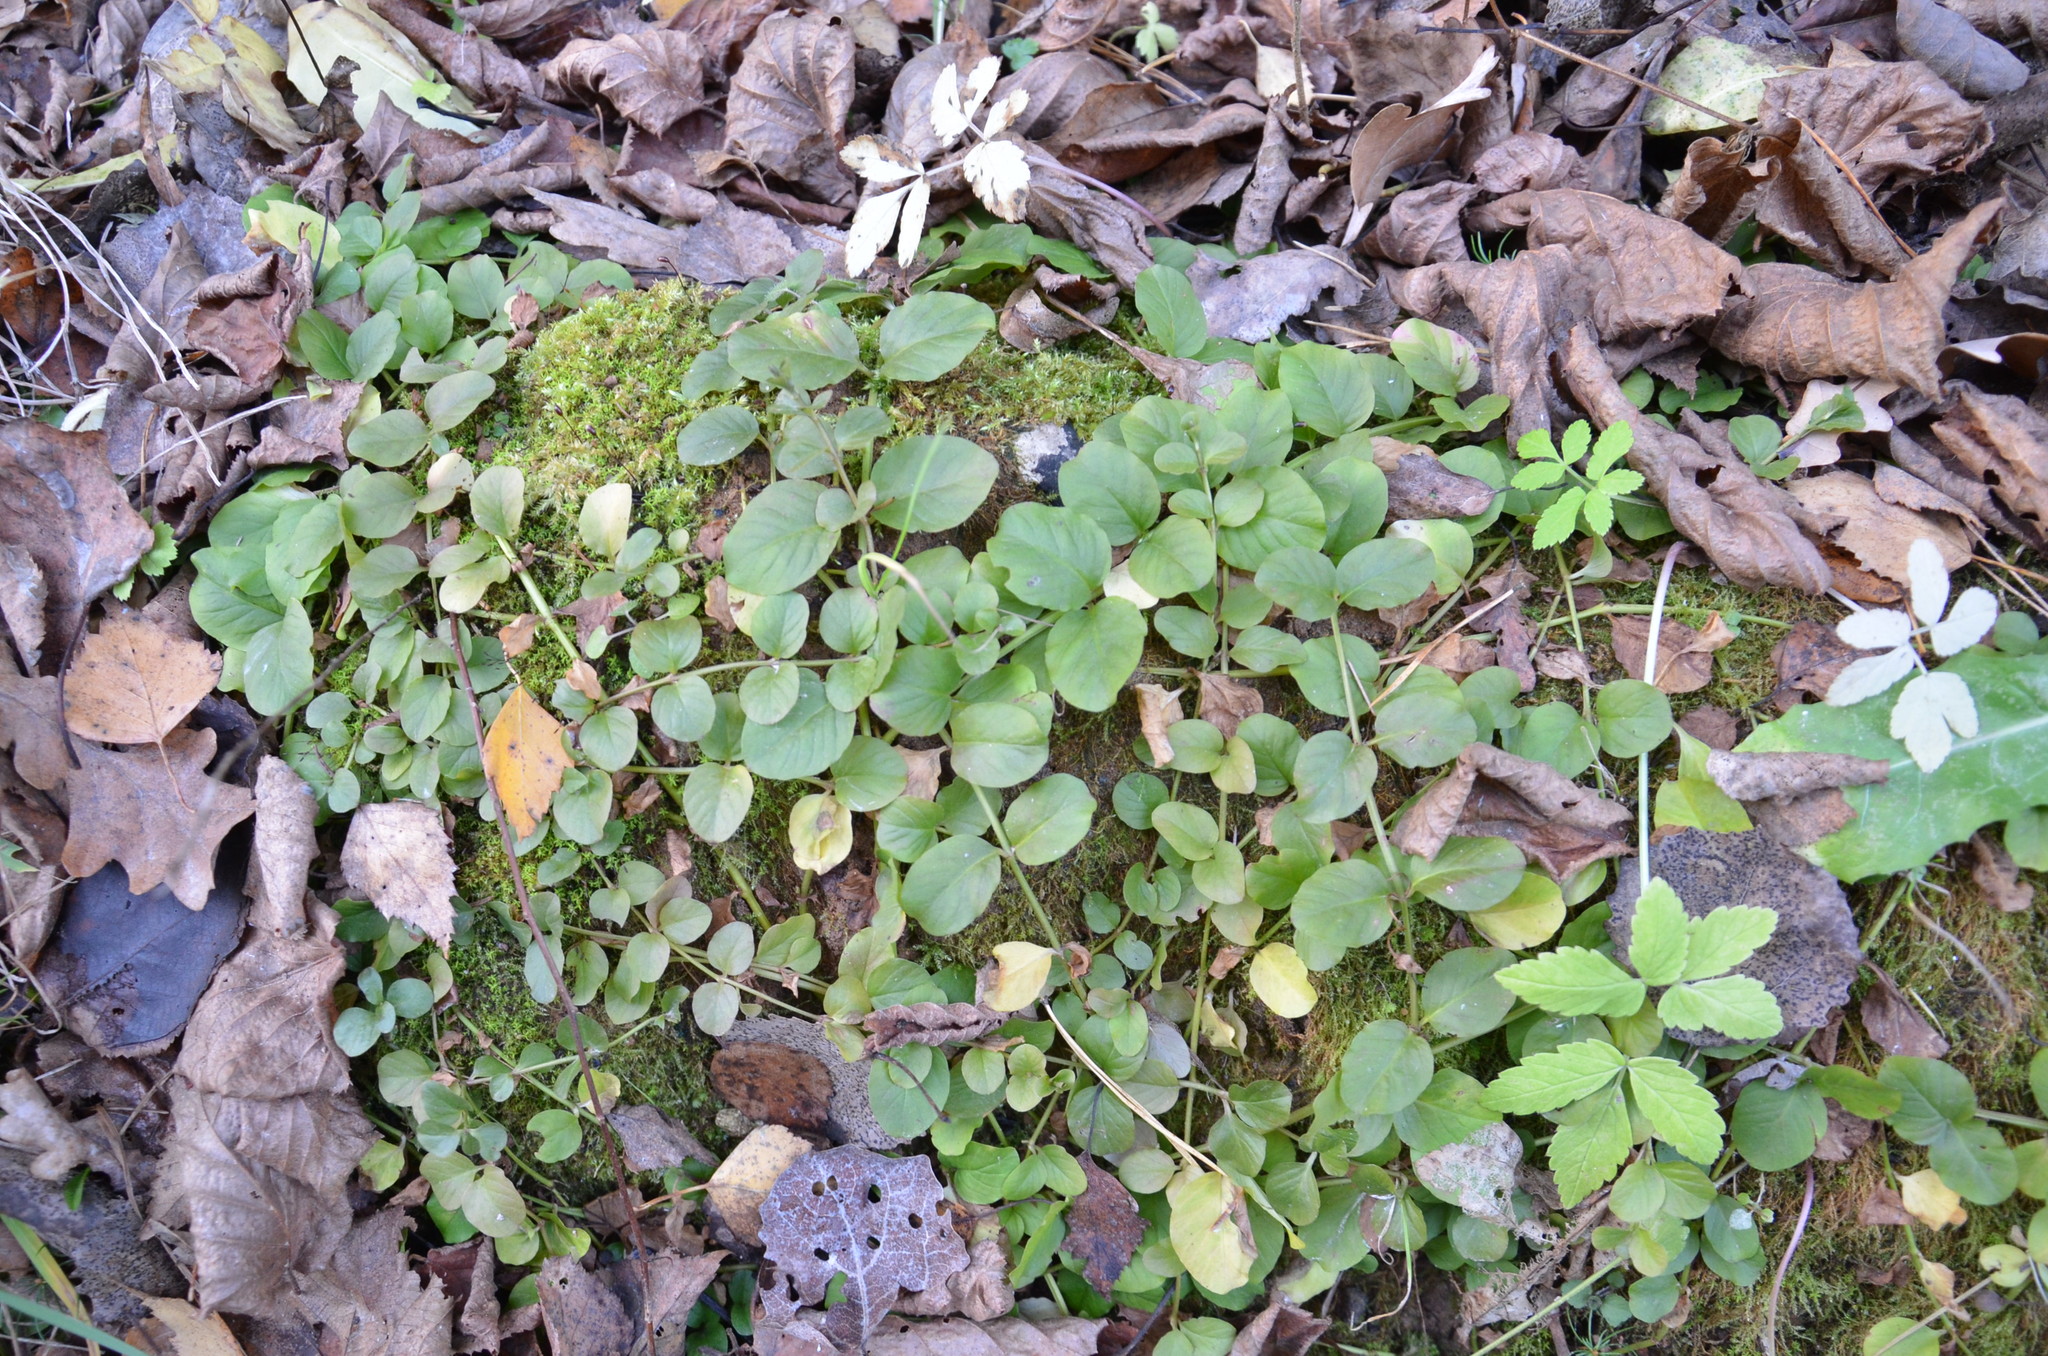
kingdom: Plantae
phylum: Tracheophyta
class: Magnoliopsida
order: Ericales
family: Primulaceae
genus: Lysimachia
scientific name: Lysimachia nummularia
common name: Moneywort
